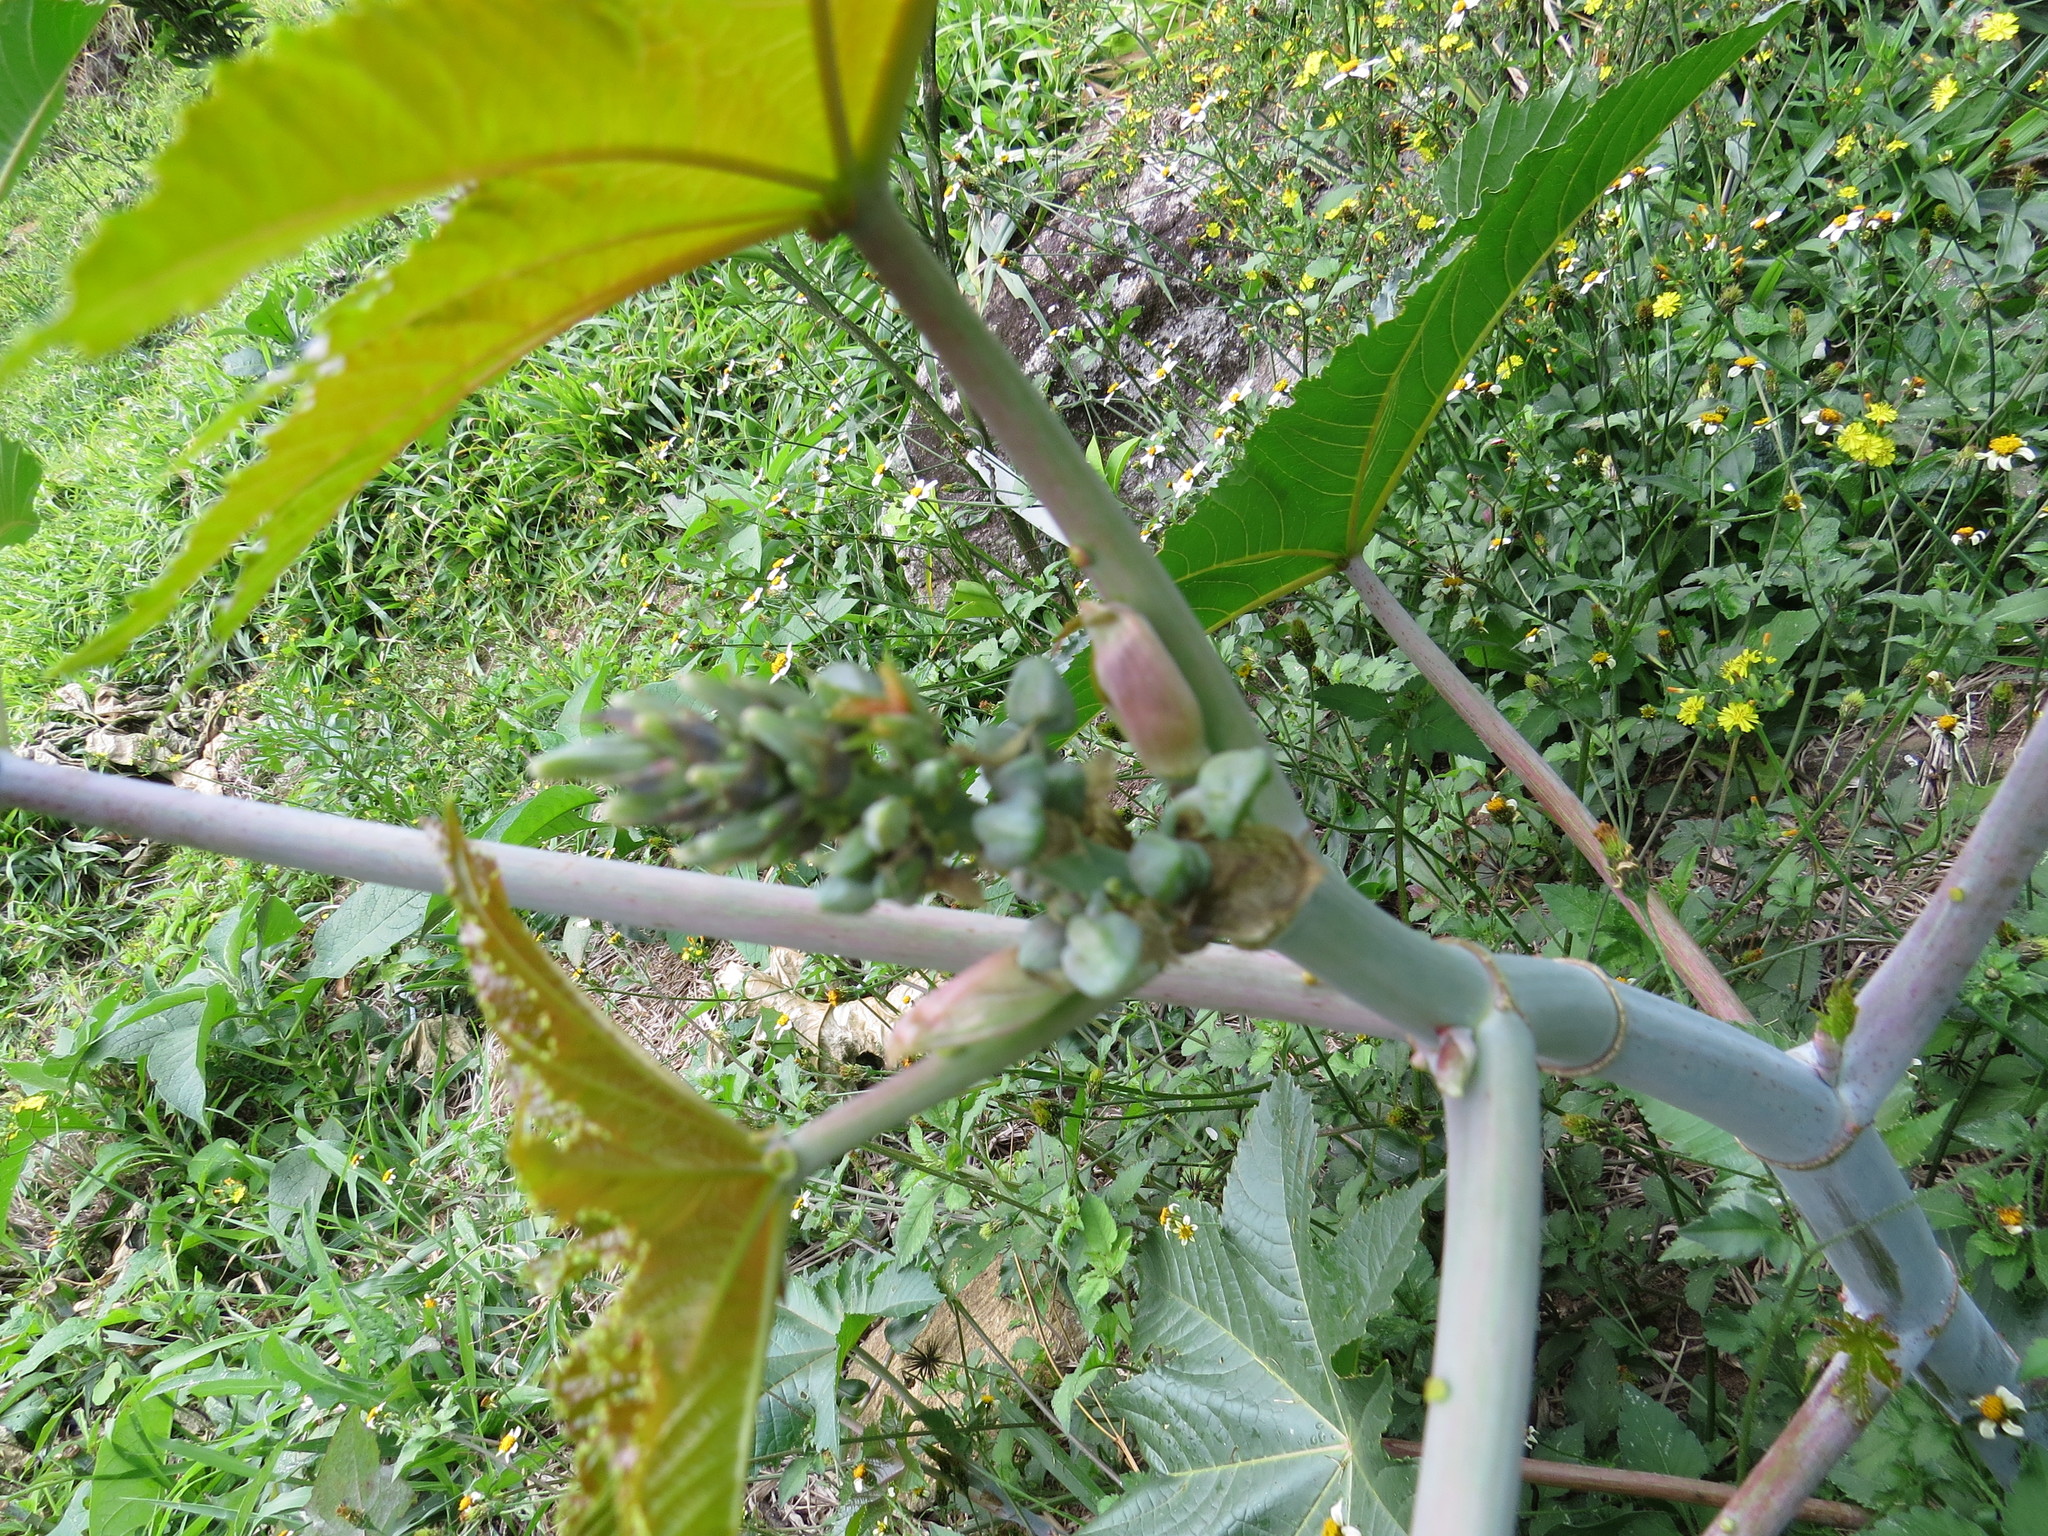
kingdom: Plantae
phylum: Tracheophyta
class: Magnoliopsida
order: Malpighiales
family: Euphorbiaceae
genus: Ricinus
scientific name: Ricinus communis
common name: Castor-oil-plant
